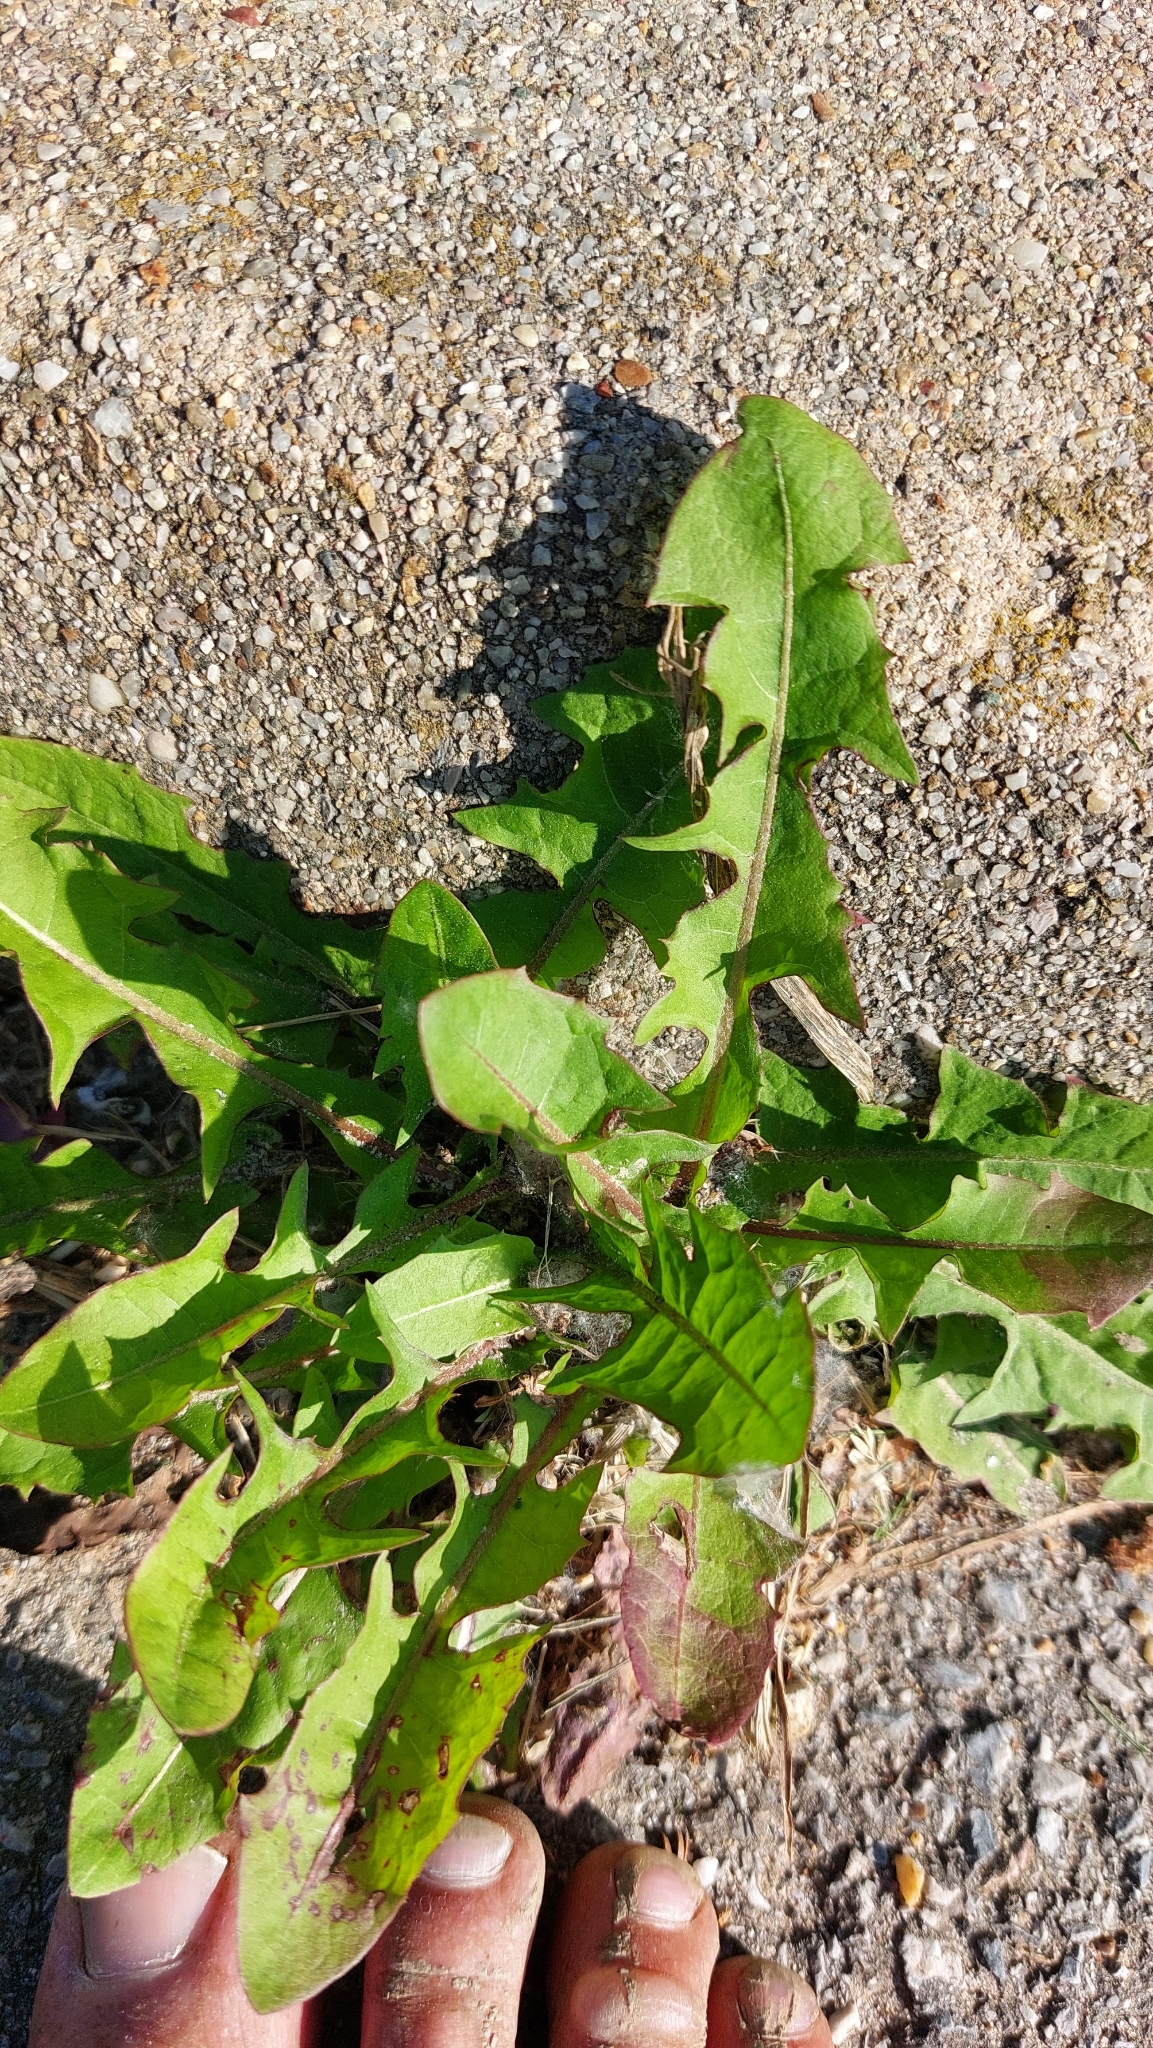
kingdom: Plantae
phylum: Tracheophyta
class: Magnoliopsida
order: Asterales
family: Asteraceae
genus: Taraxacum
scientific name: Taraxacum
